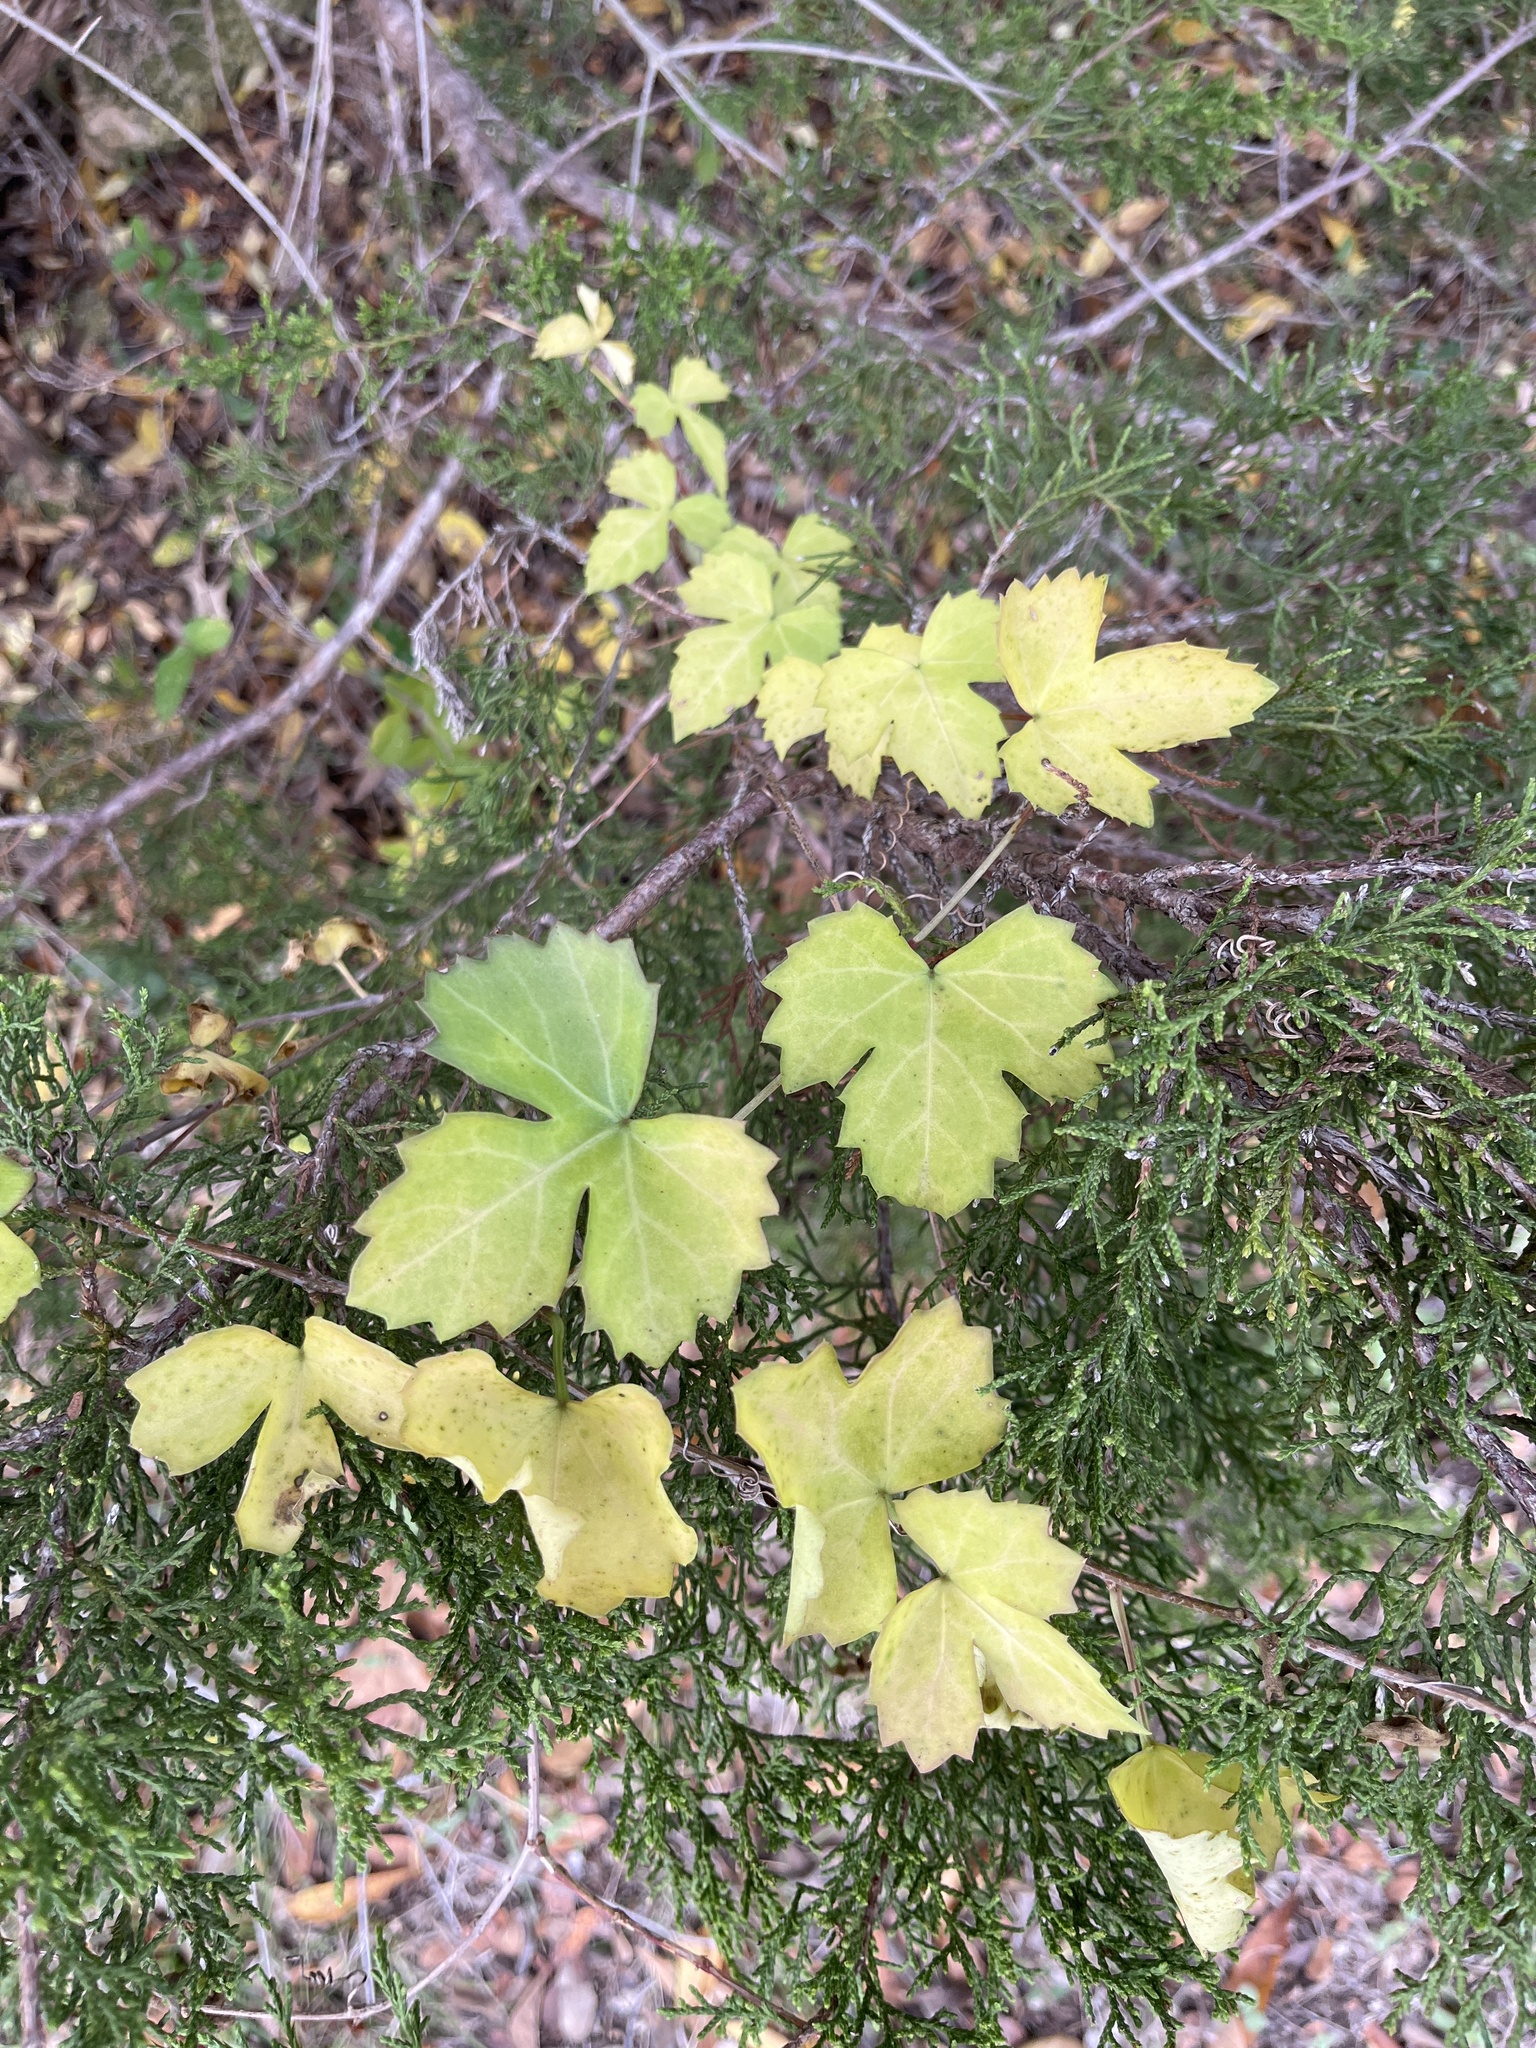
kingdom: Plantae
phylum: Tracheophyta
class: Magnoliopsida
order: Vitales
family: Vitaceae
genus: Cissus
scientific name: Cissus trifoliata
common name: Vine-sorrel
